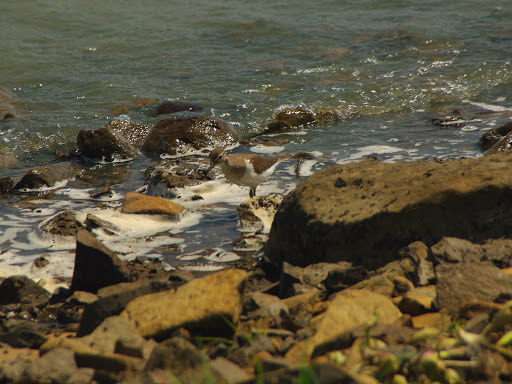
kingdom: Animalia
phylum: Chordata
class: Aves
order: Charadriiformes
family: Scolopacidae
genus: Actitis
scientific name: Actitis hypoleucos
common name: Common sandpiper
